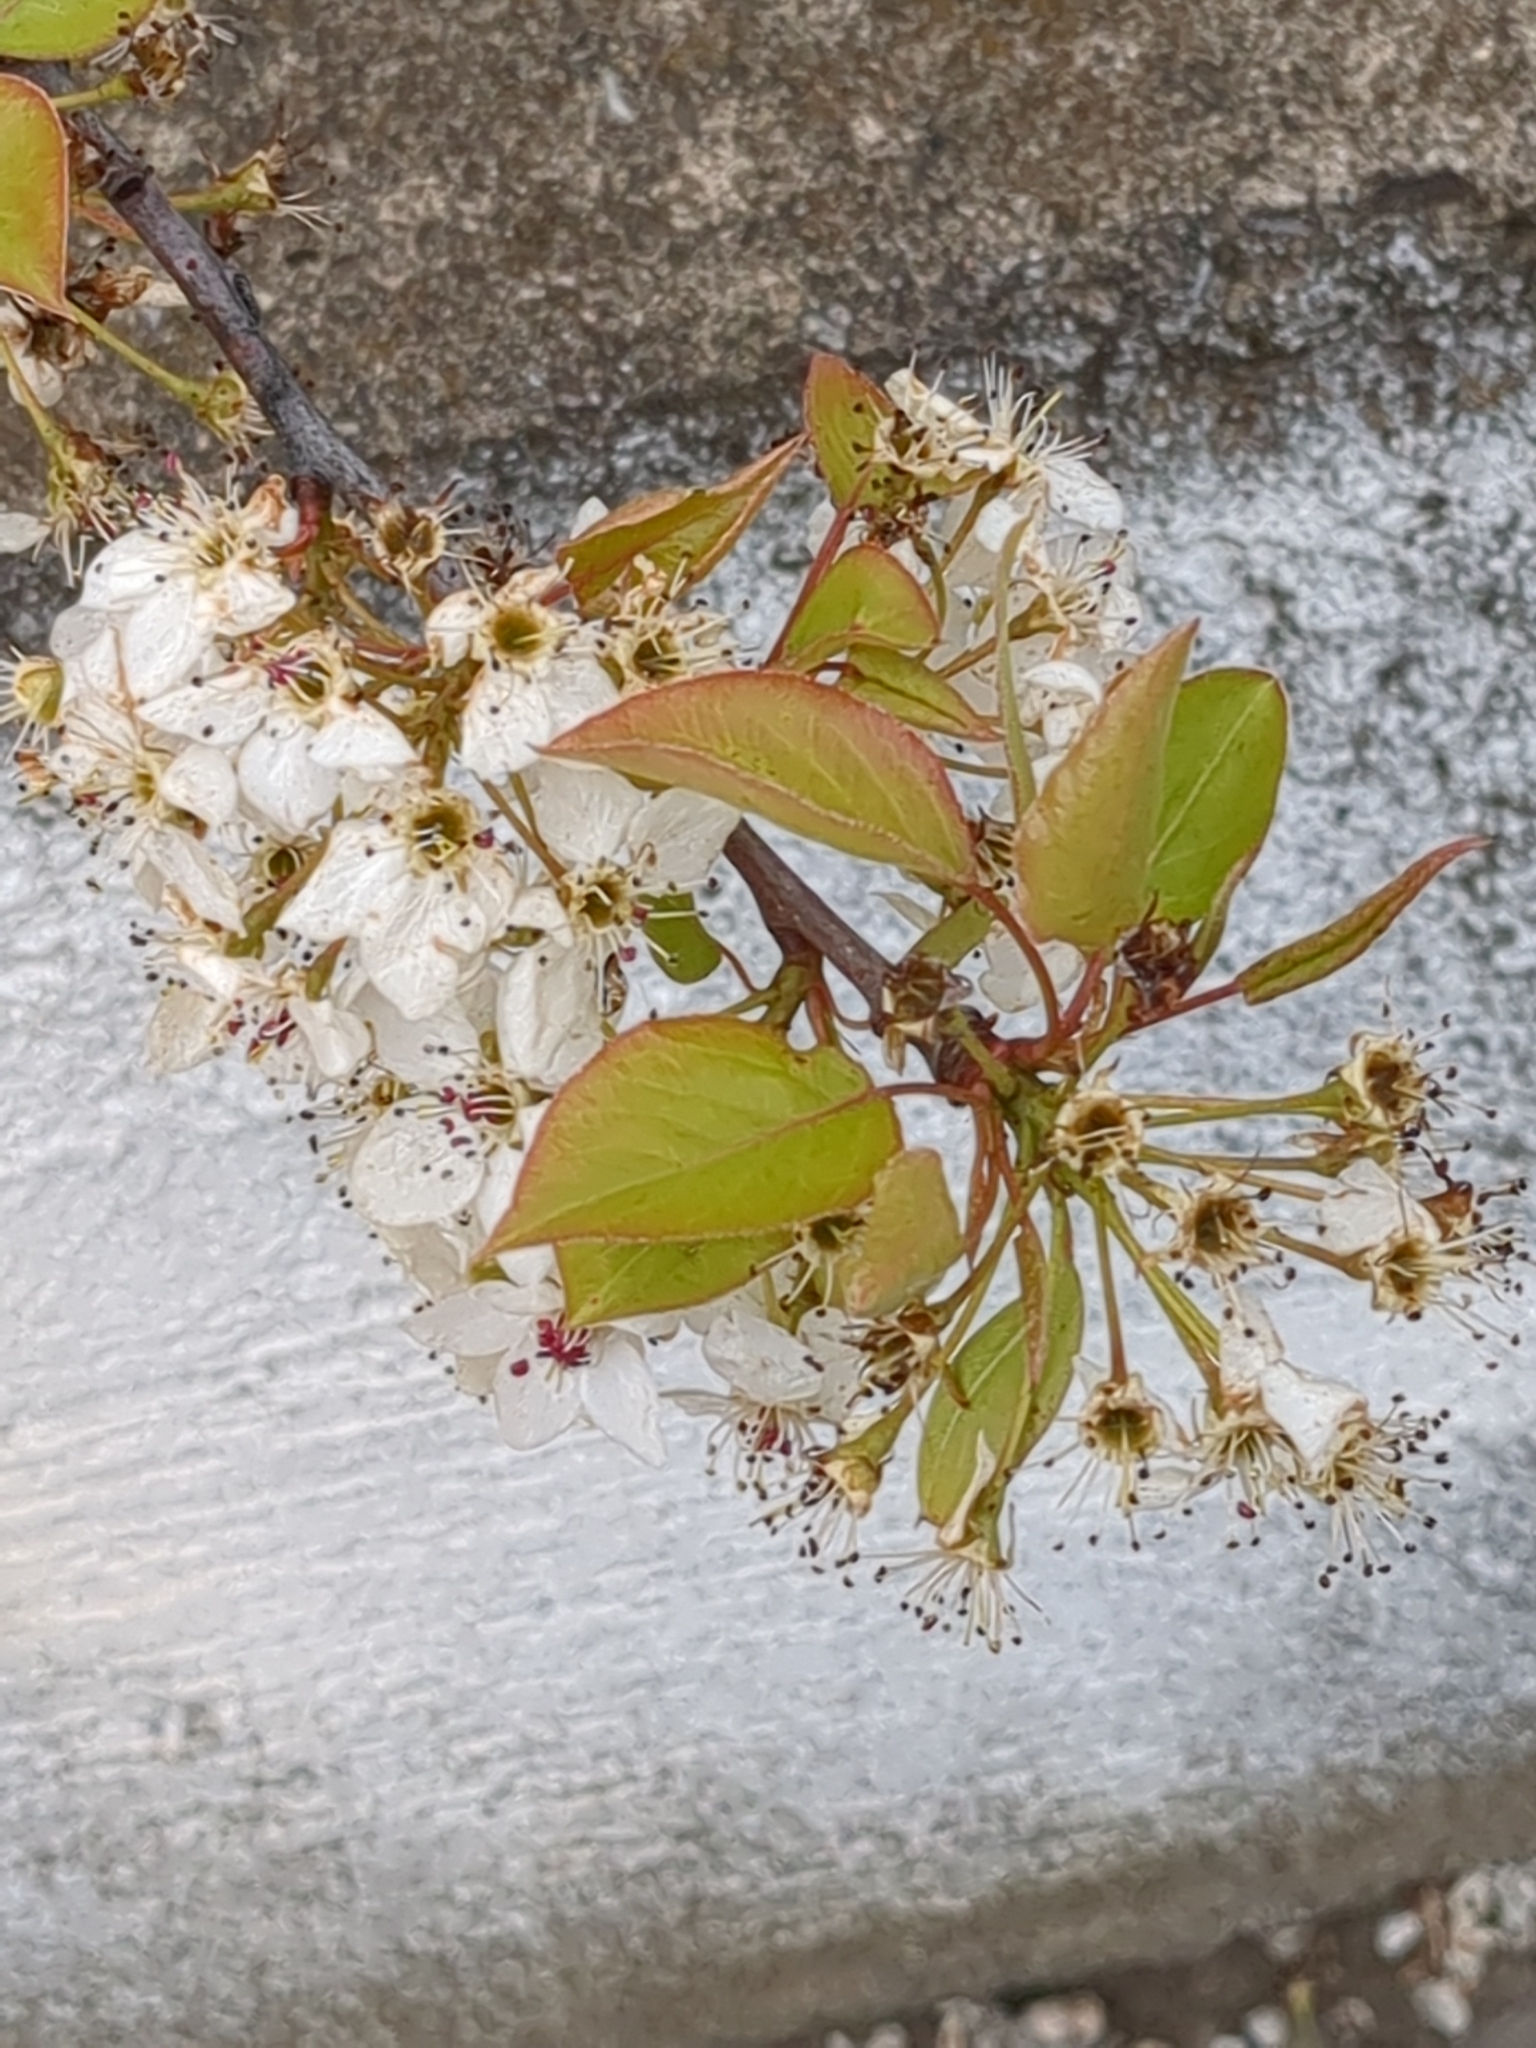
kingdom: Plantae
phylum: Tracheophyta
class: Magnoliopsida
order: Rosales
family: Rosaceae
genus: Pyrus
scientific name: Pyrus calleryana
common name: Callery pear
